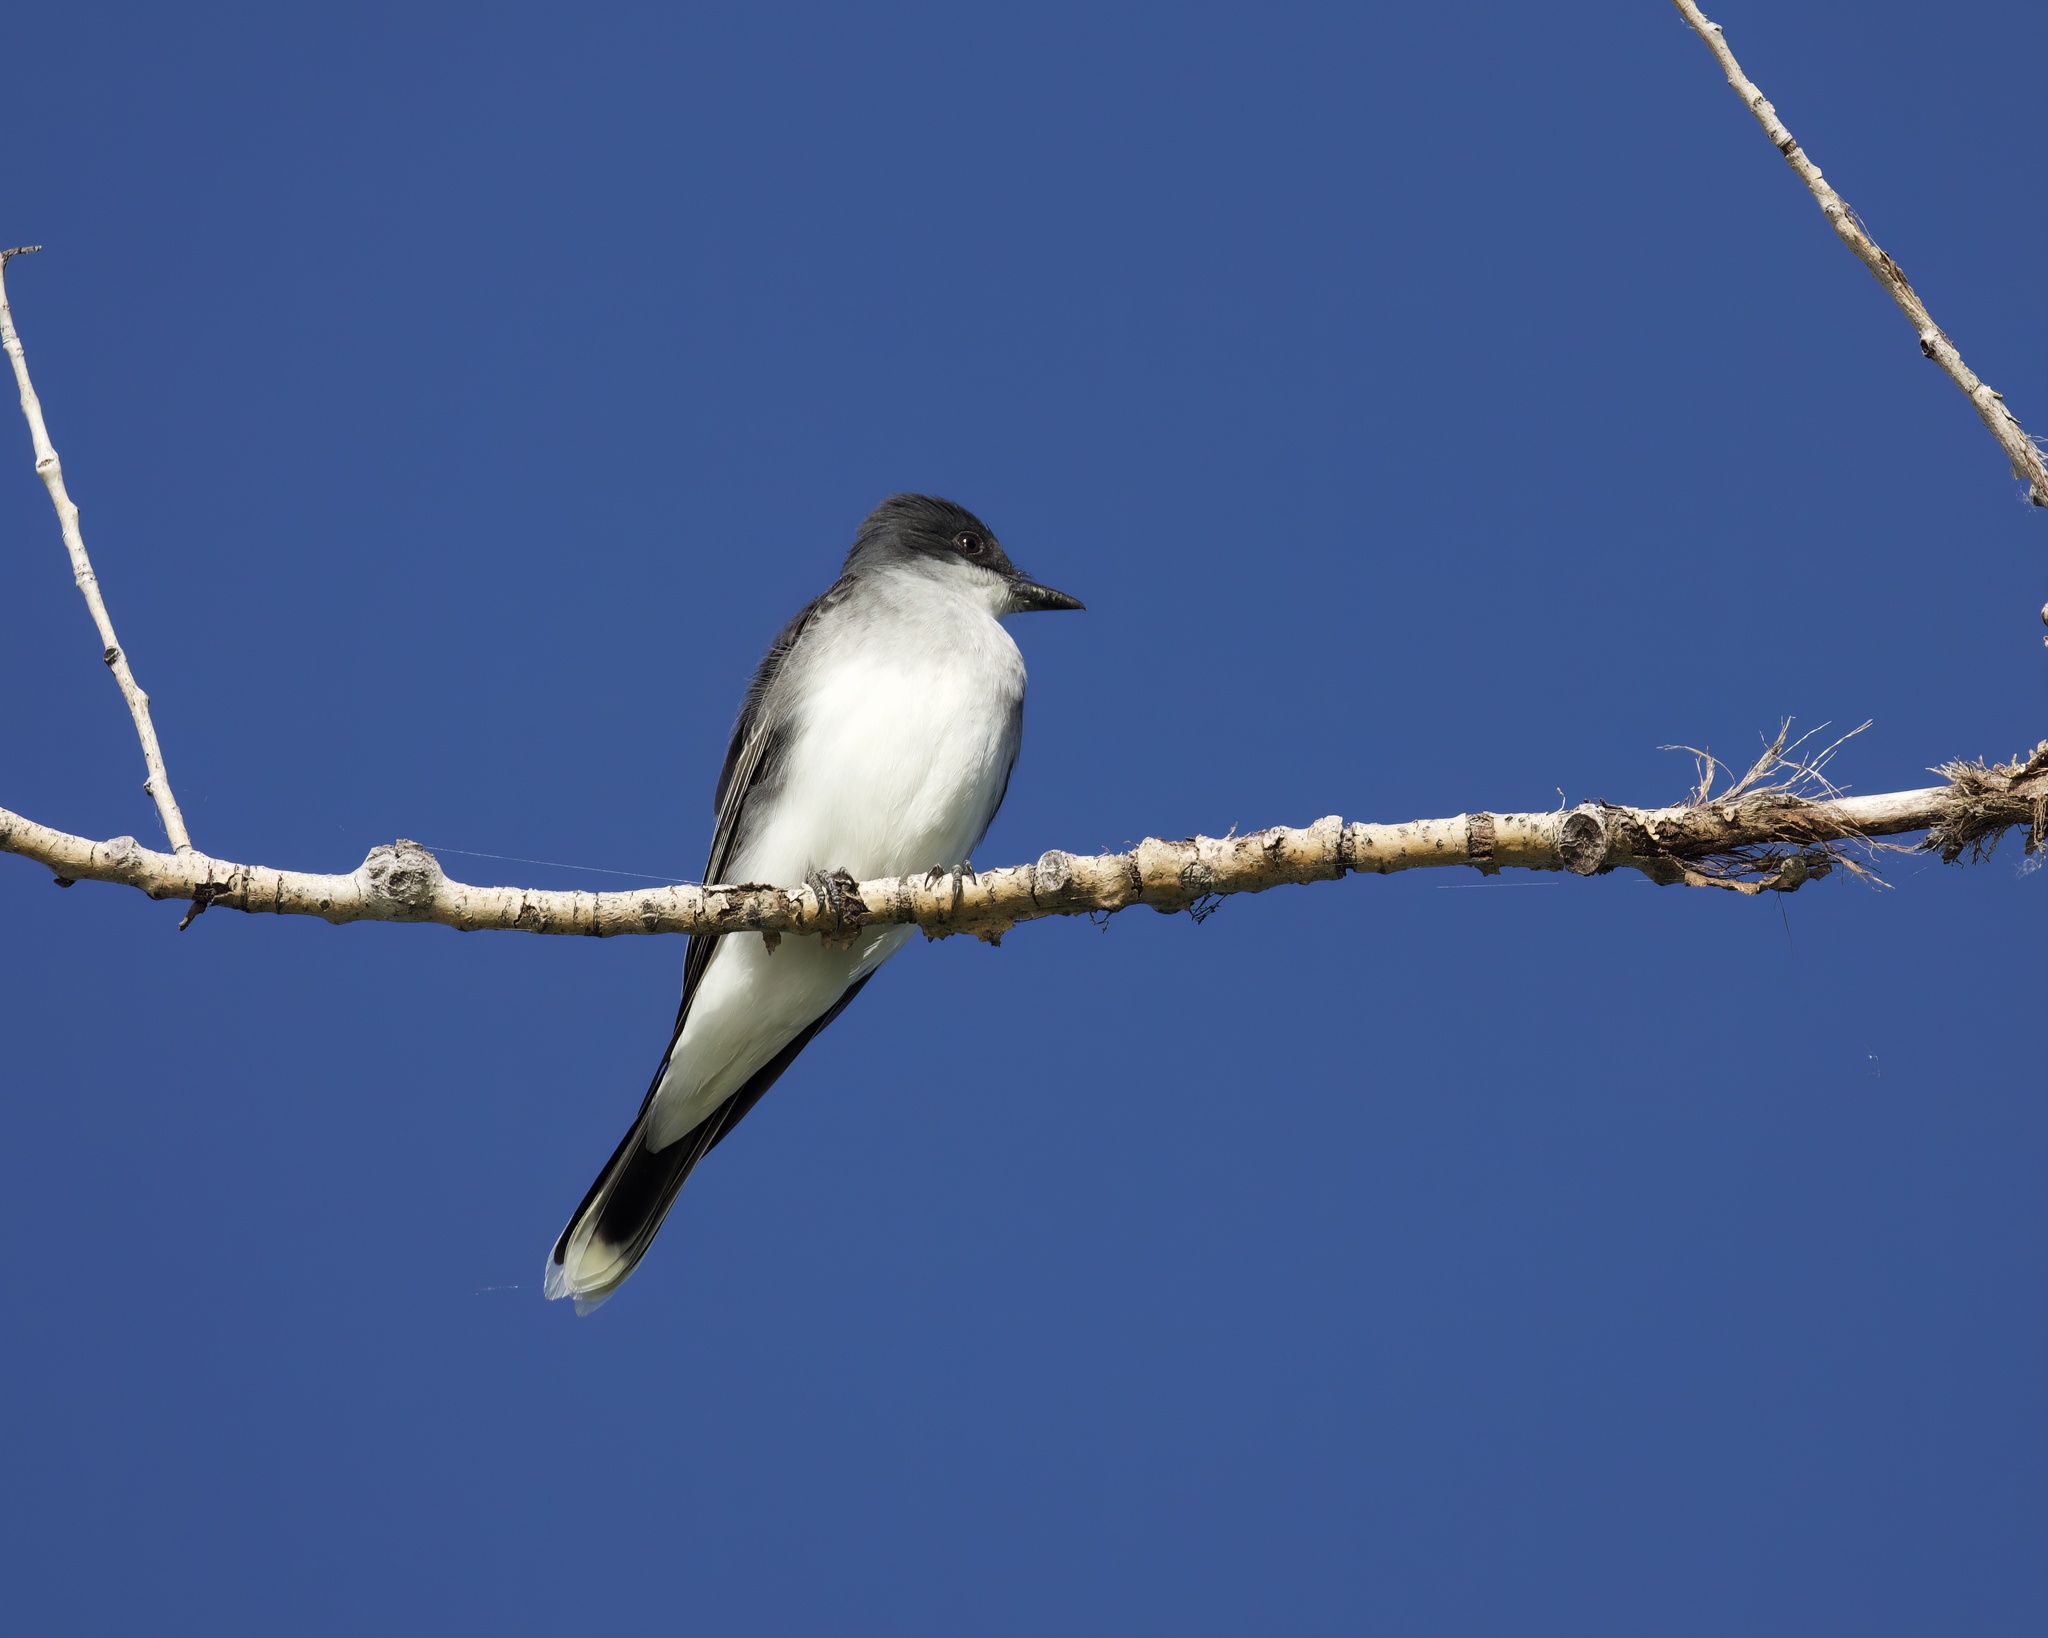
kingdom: Animalia
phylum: Chordata
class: Aves
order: Passeriformes
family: Tyrannidae
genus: Tyrannus
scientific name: Tyrannus tyrannus
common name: Eastern kingbird
